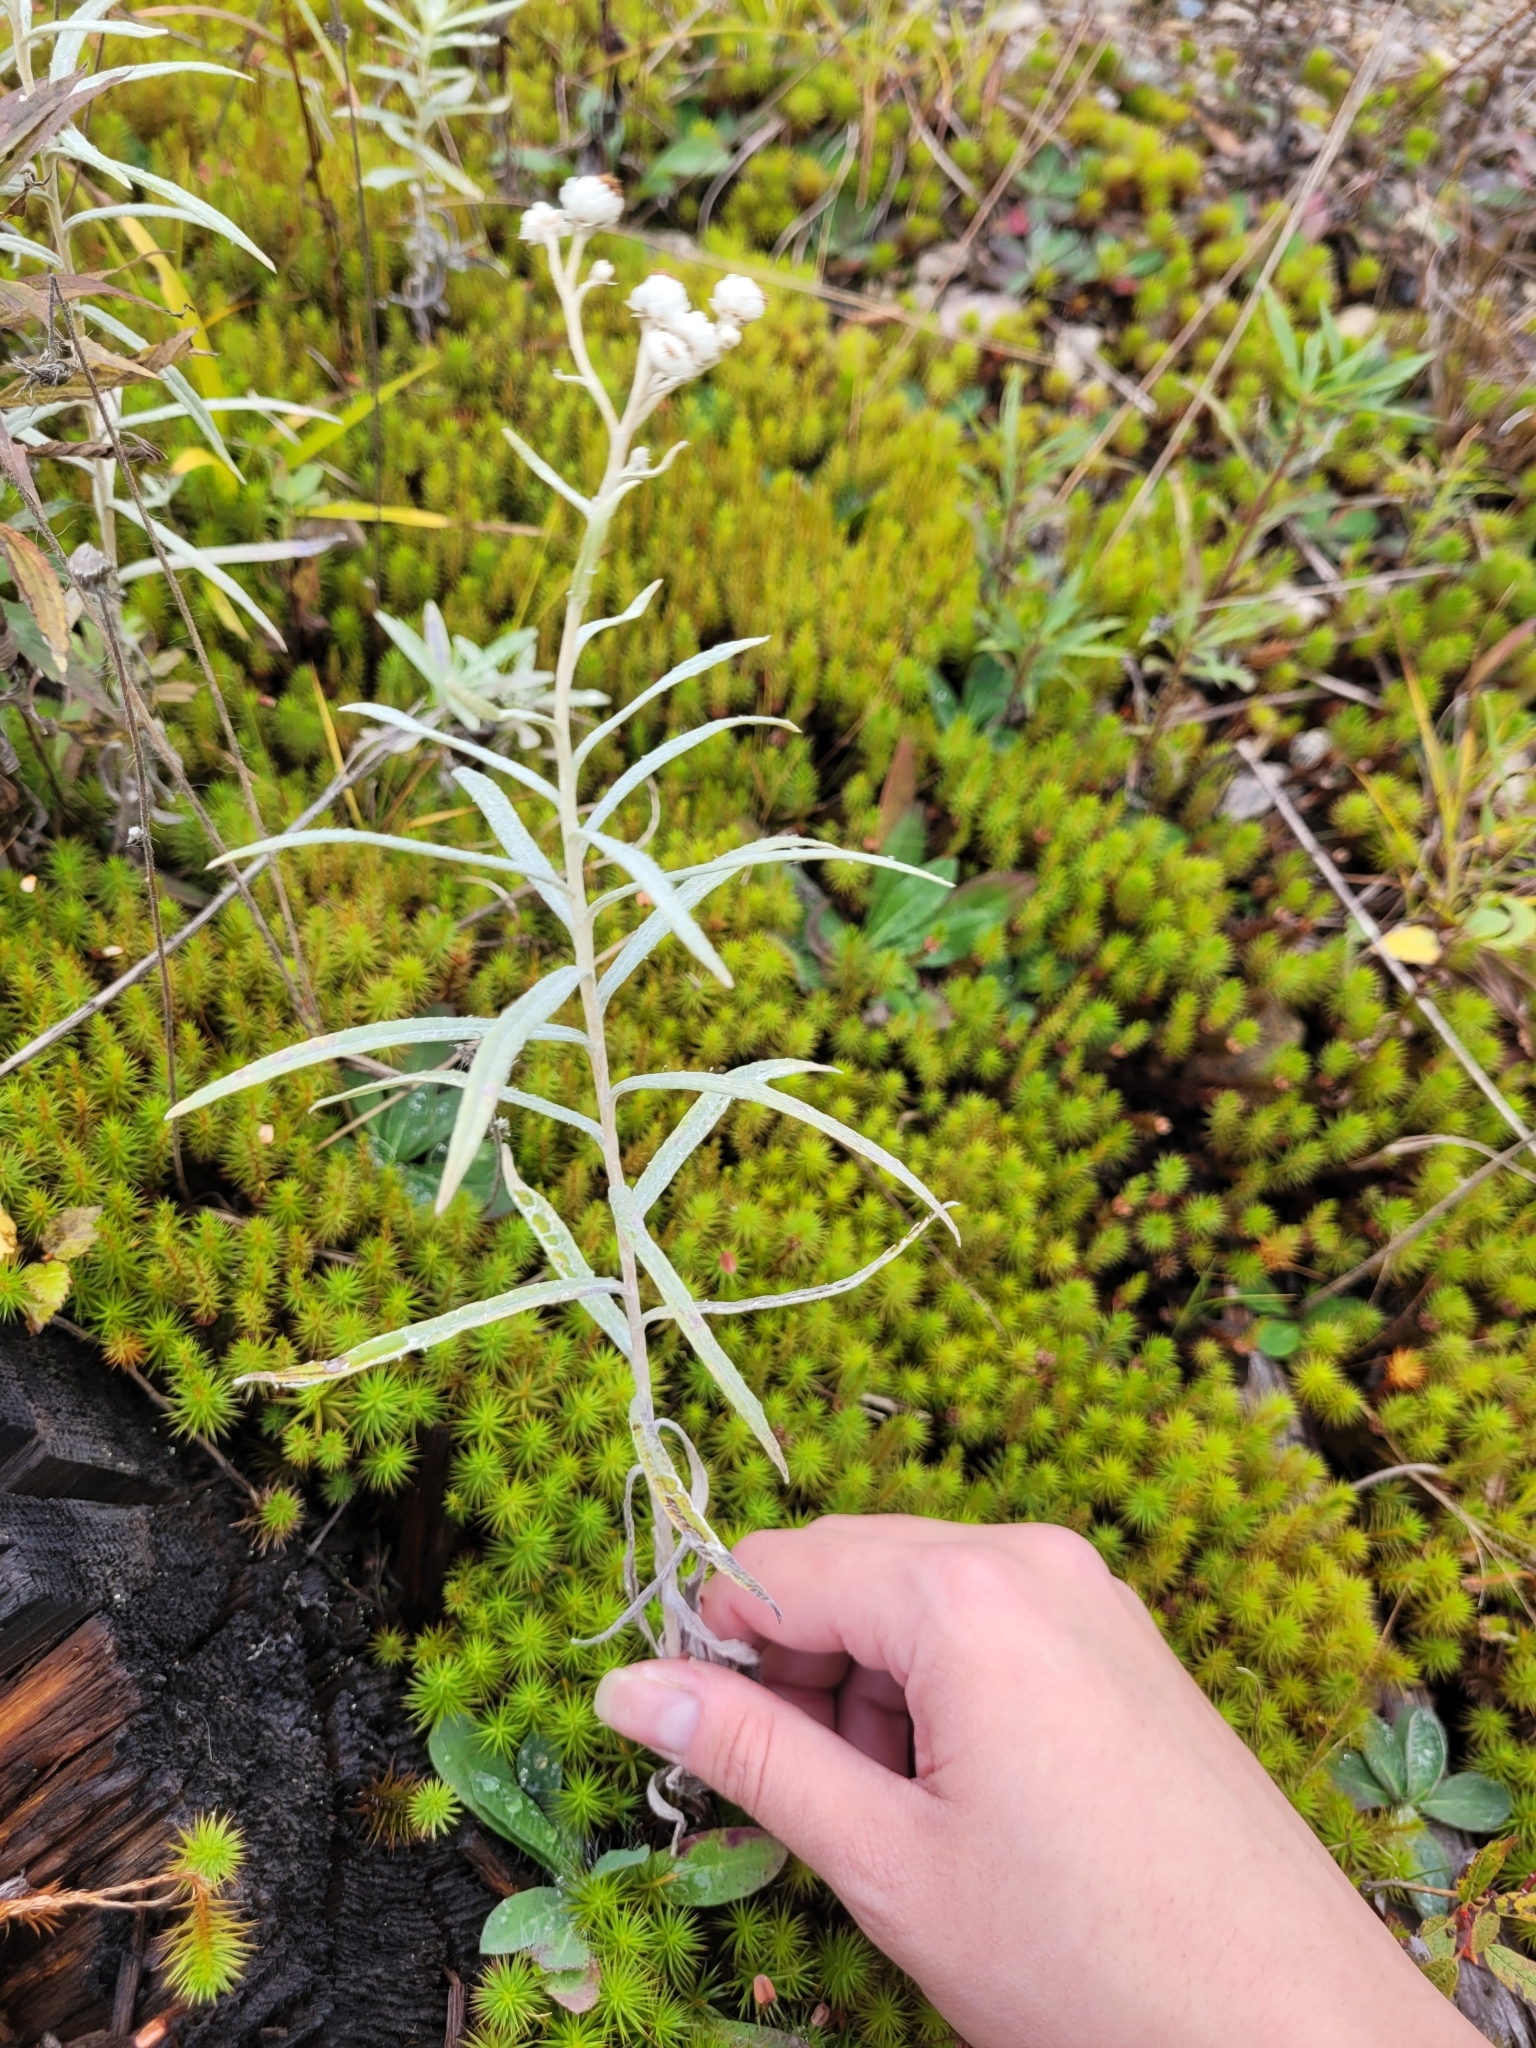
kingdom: Plantae
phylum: Tracheophyta
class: Magnoliopsida
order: Asterales
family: Asteraceae
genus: Anaphalis
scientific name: Anaphalis margaritacea
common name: Pearly everlasting
